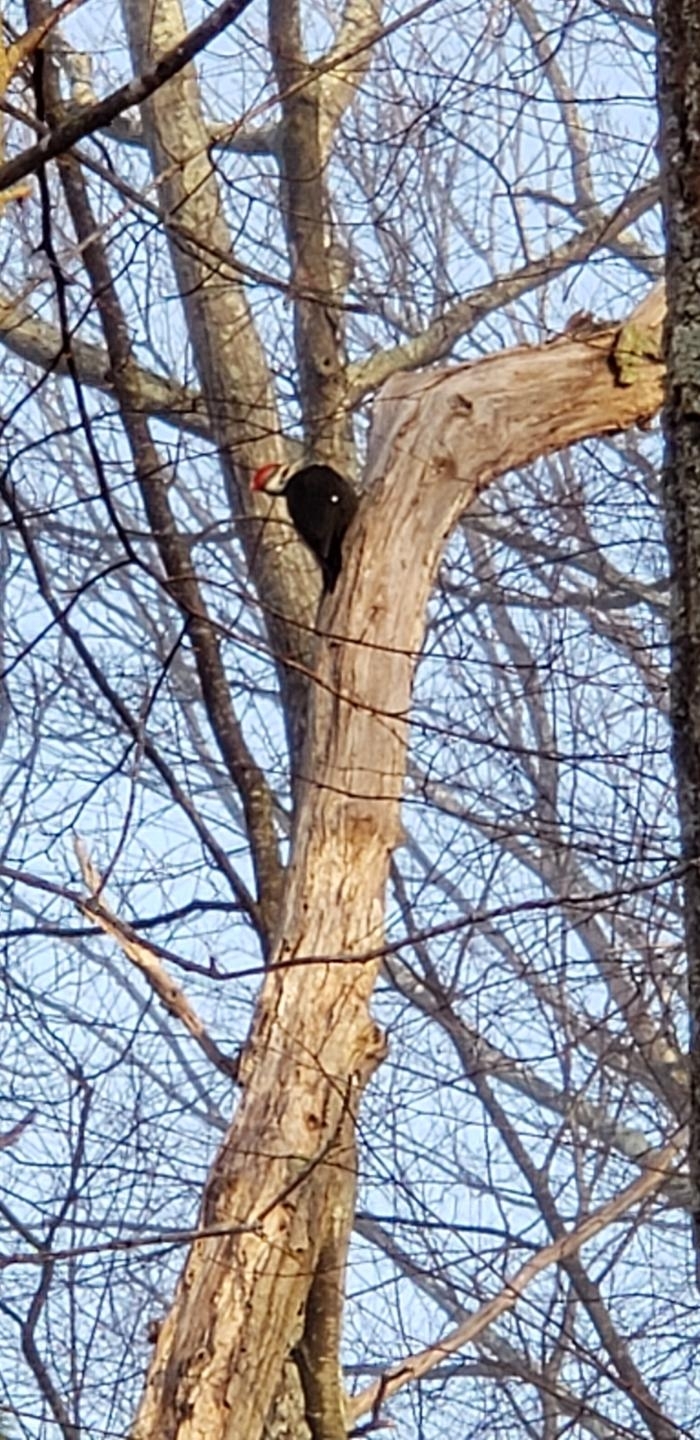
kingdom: Animalia
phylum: Chordata
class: Aves
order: Piciformes
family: Picidae
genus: Dryocopus
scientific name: Dryocopus pileatus
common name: Pileated woodpecker
